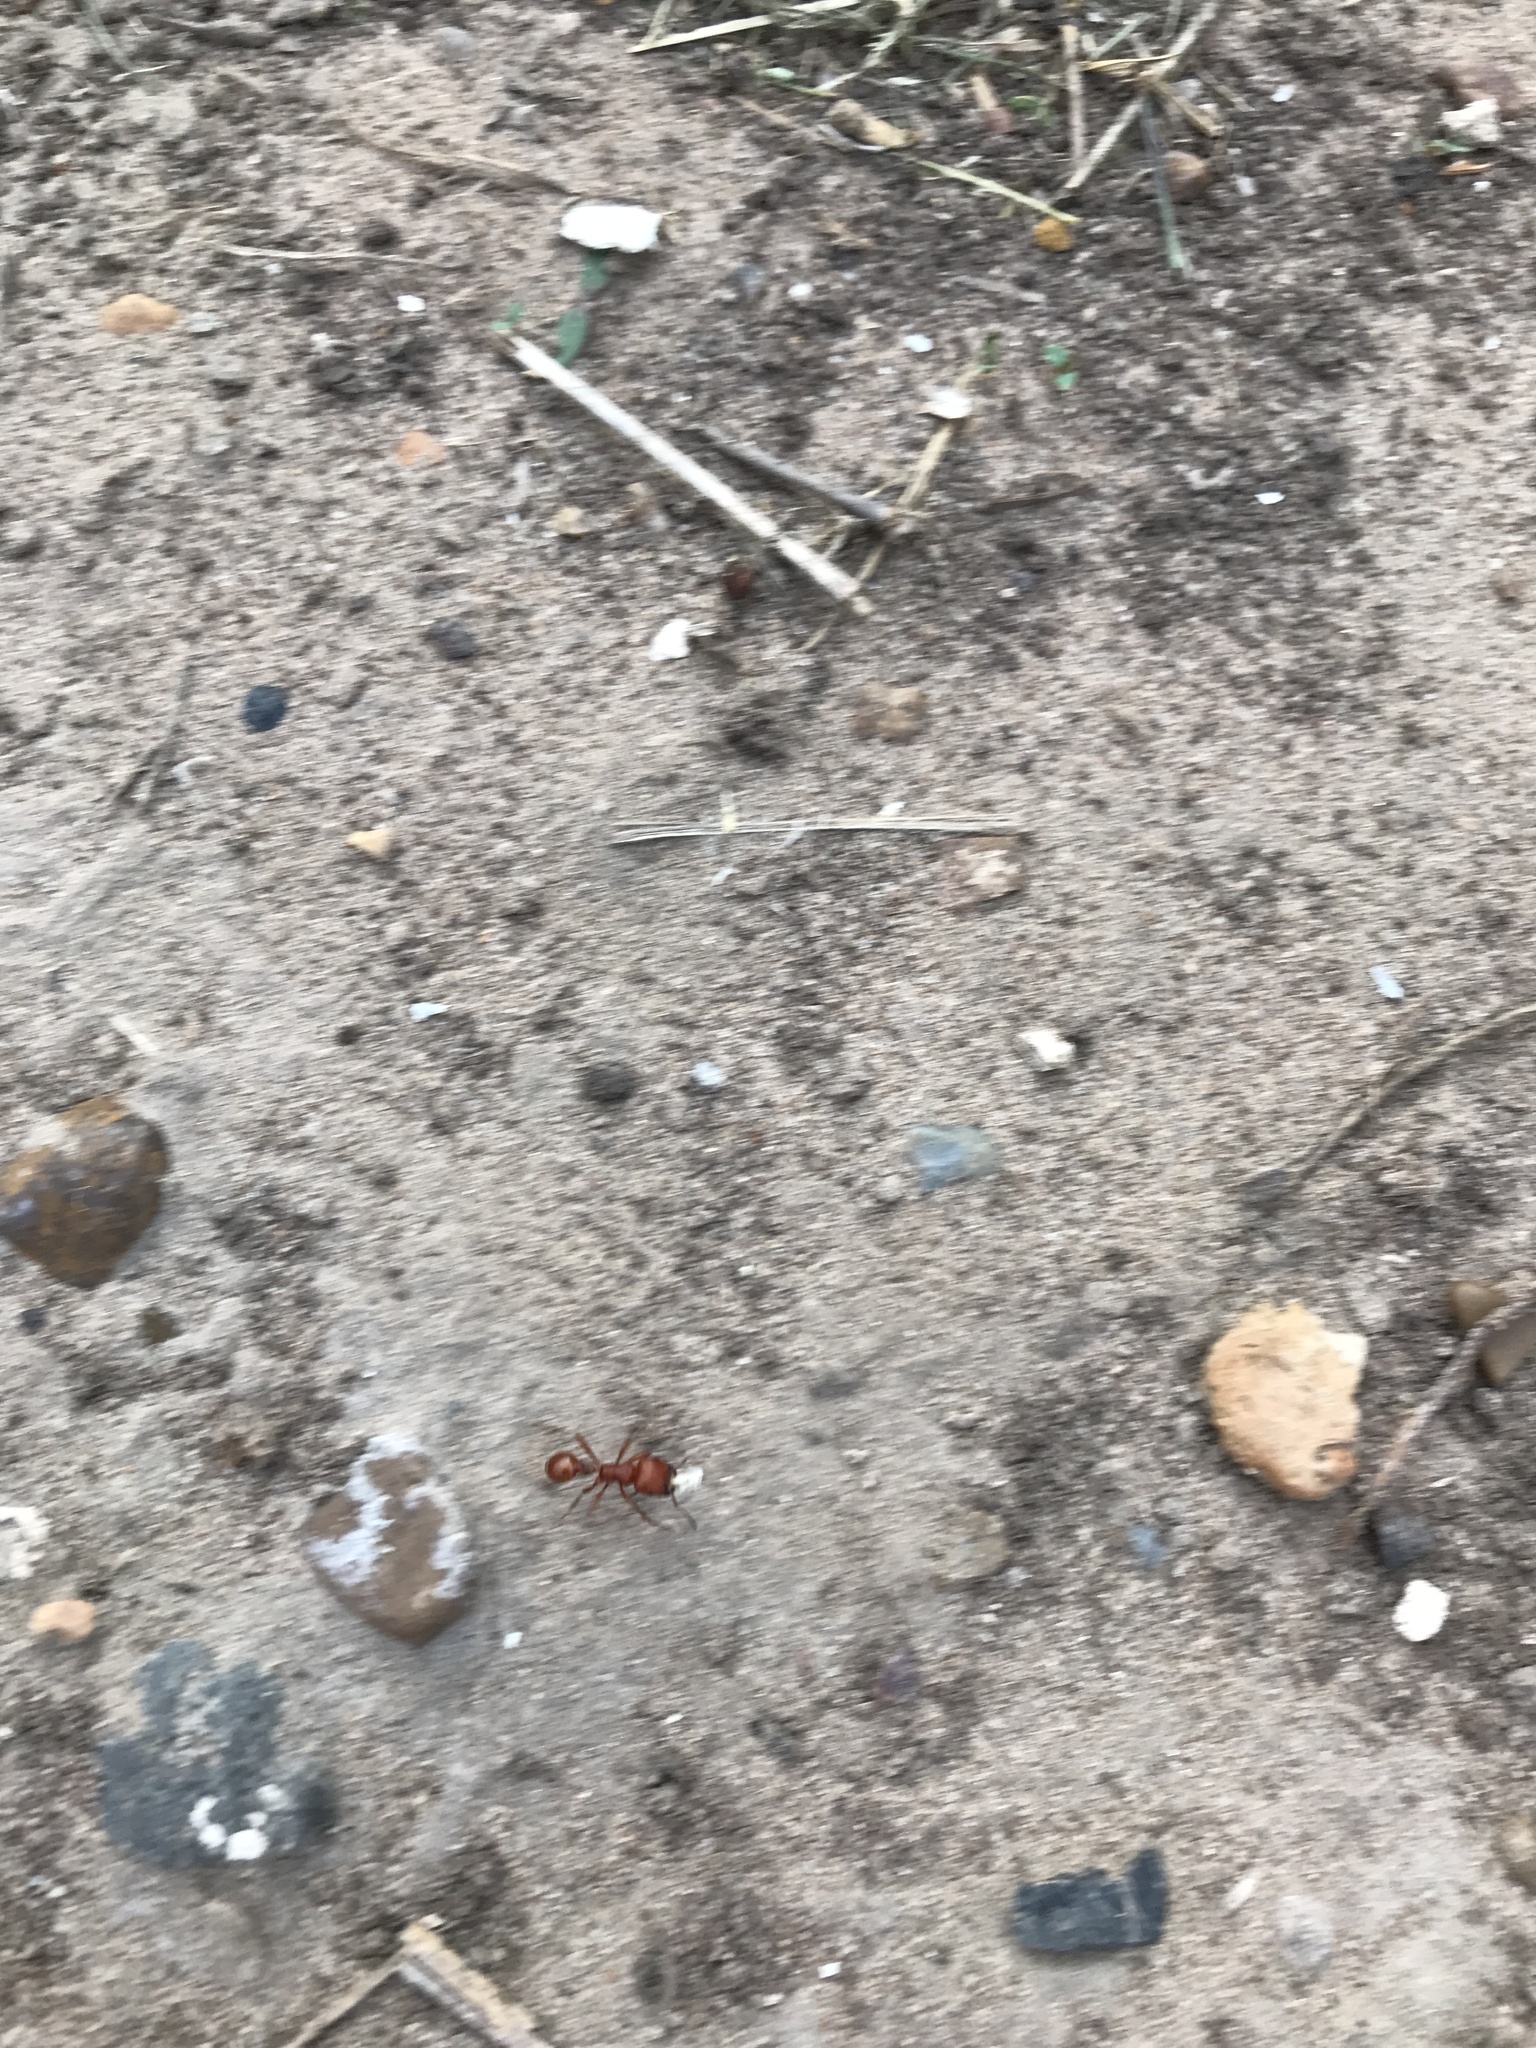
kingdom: Animalia
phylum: Arthropoda
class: Insecta
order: Hymenoptera
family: Formicidae
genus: Pogonomyrmex
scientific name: Pogonomyrmex barbatus
